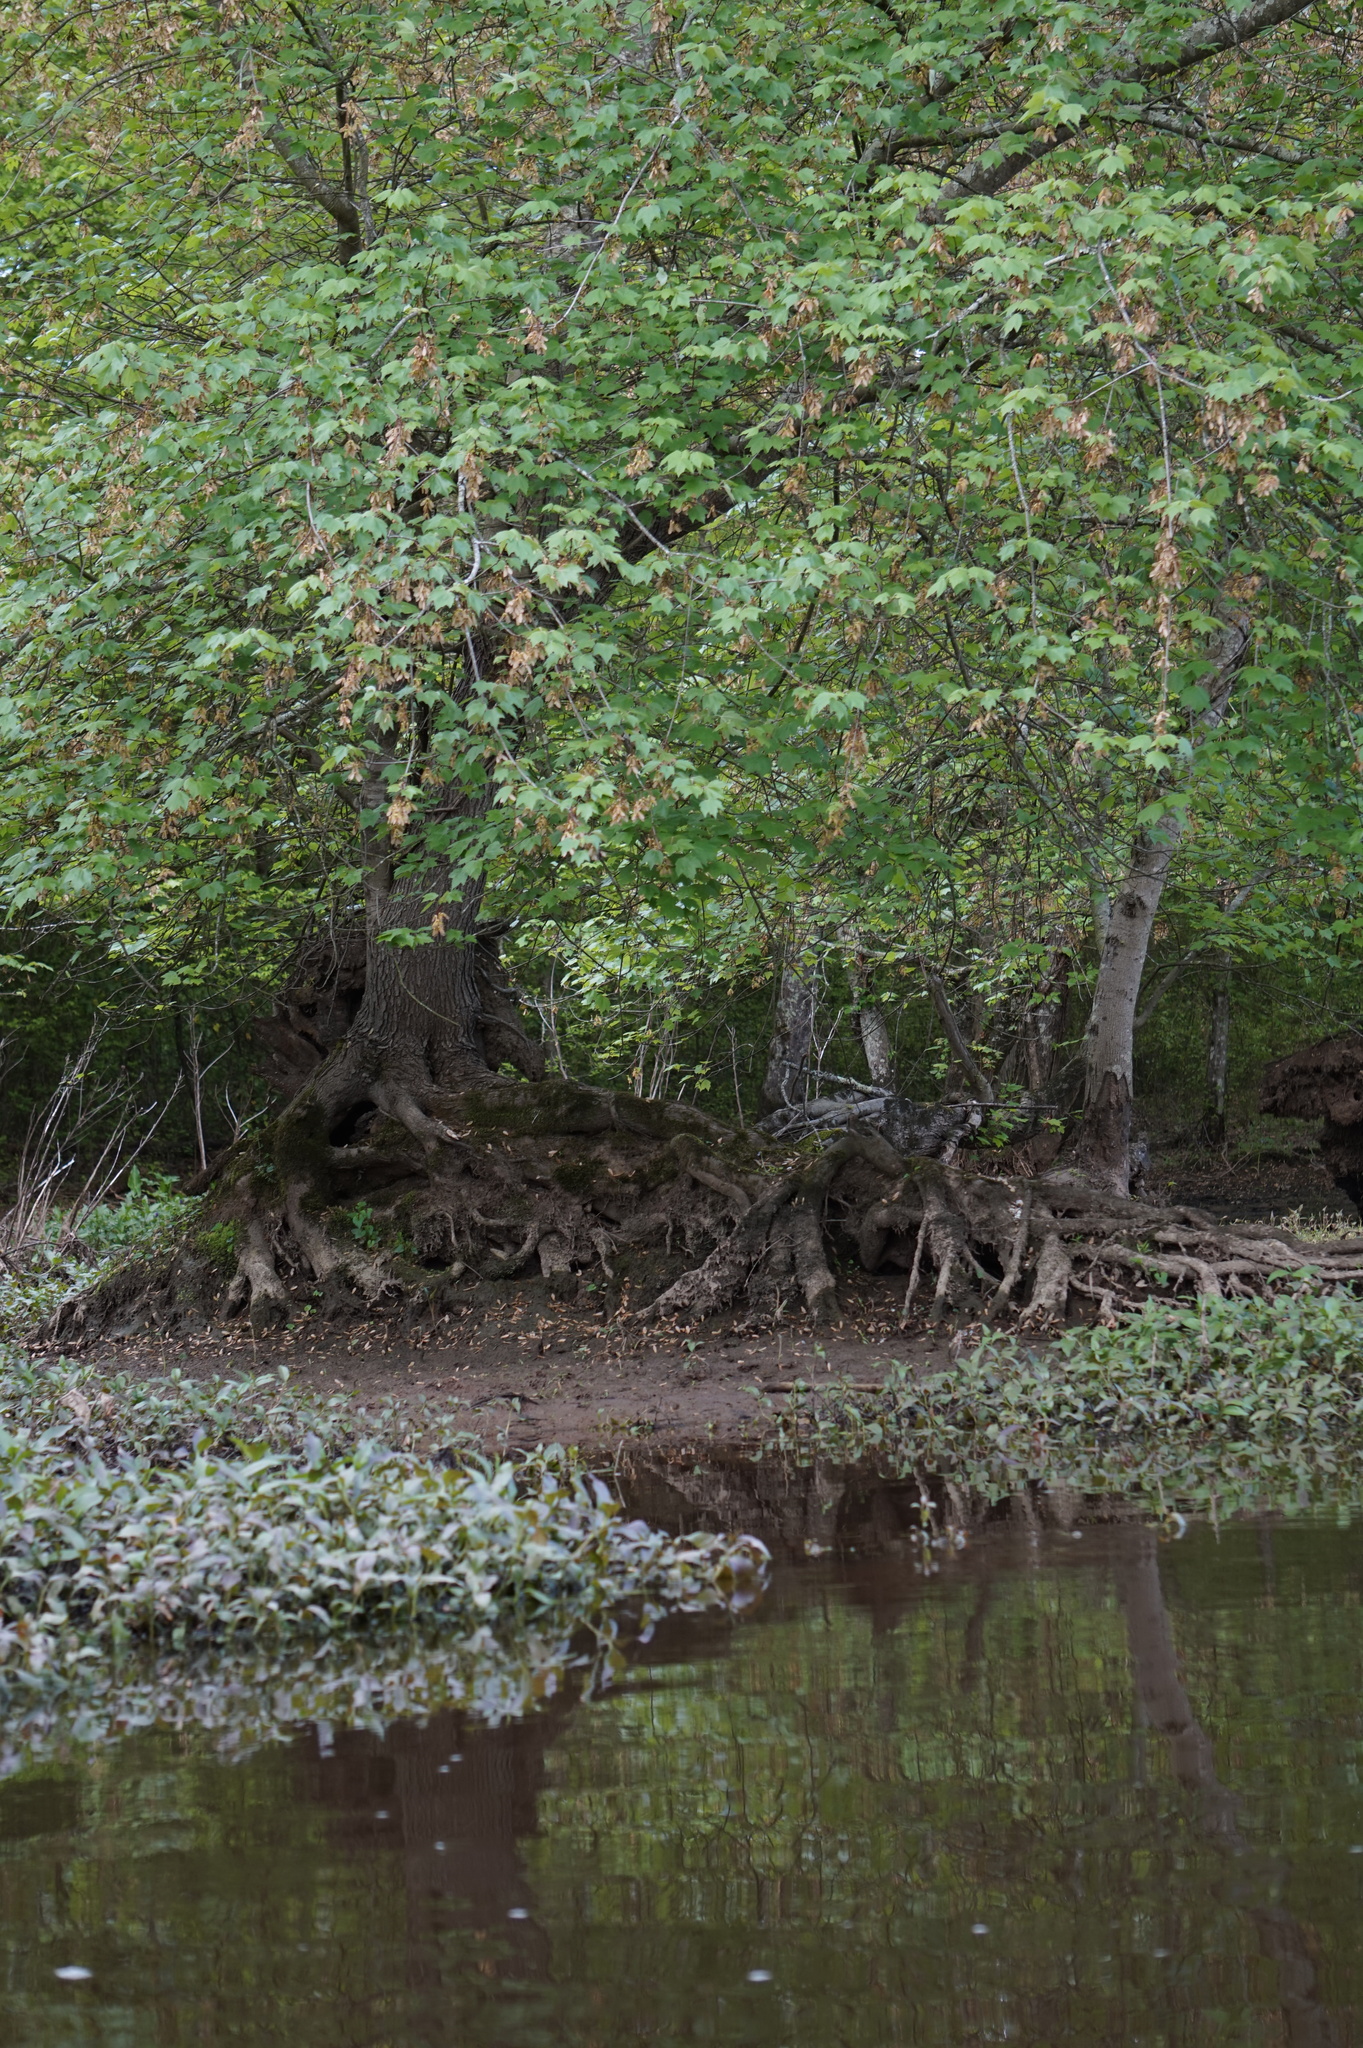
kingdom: Plantae
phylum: Tracheophyta
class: Magnoliopsida
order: Sapindales
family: Sapindaceae
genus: Acer
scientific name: Acer rubrum
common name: Red maple
